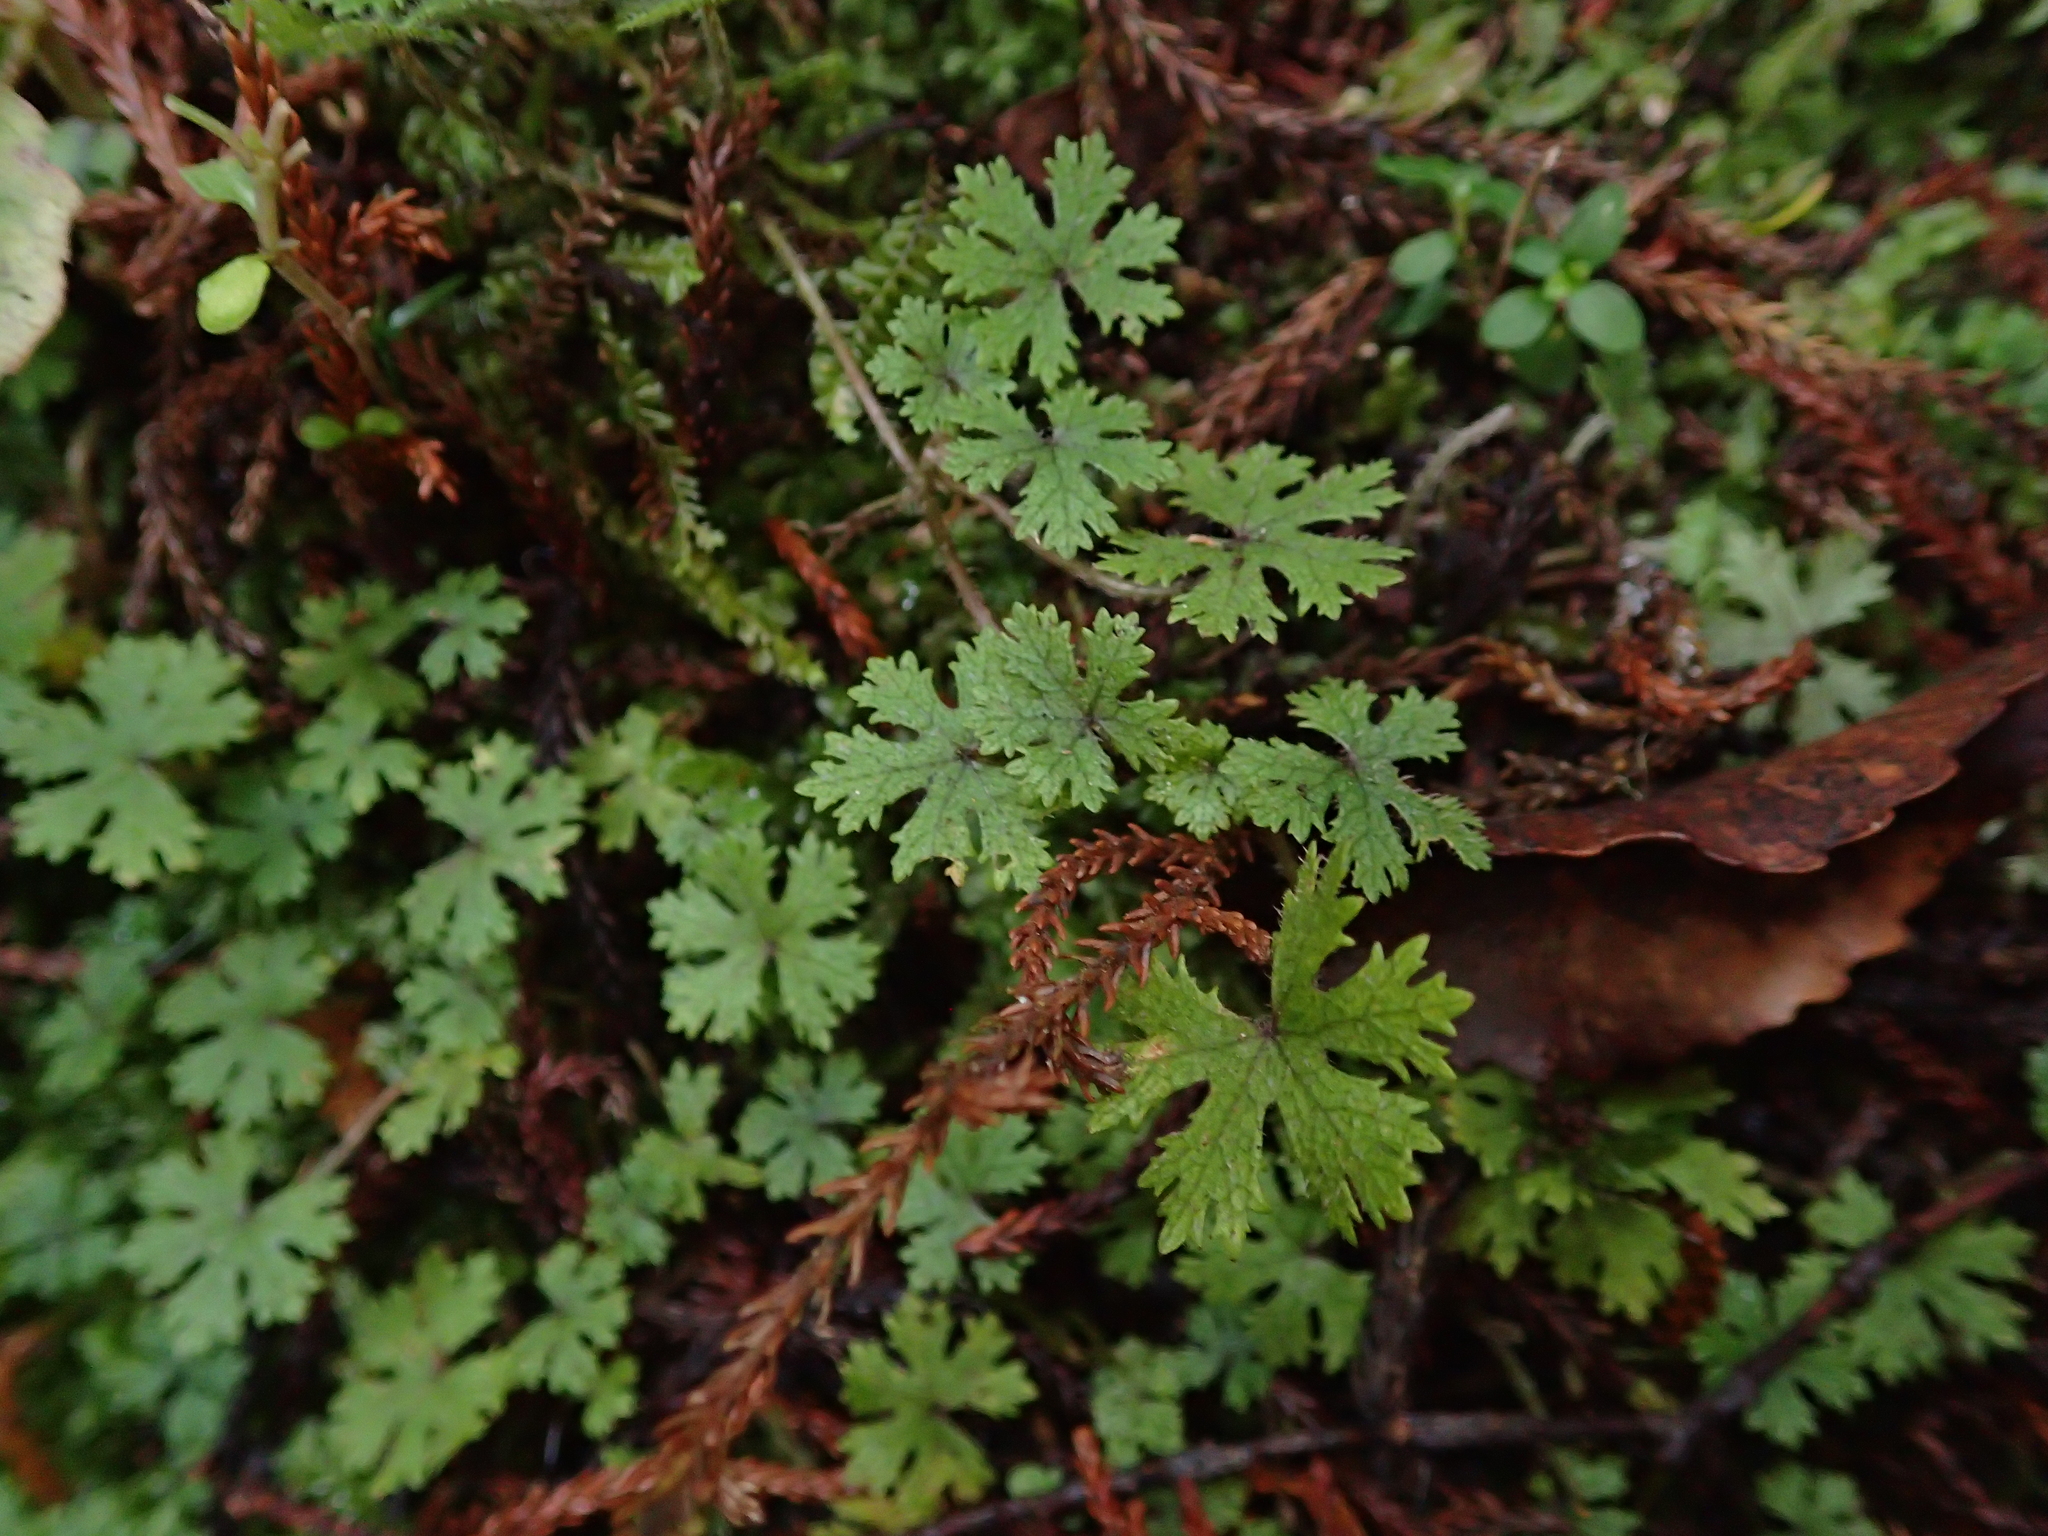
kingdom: Plantae
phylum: Tracheophyta
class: Magnoliopsida
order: Apiales
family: Araliaceae
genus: Hydrocotyle
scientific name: Hydrocotyle dissecta
